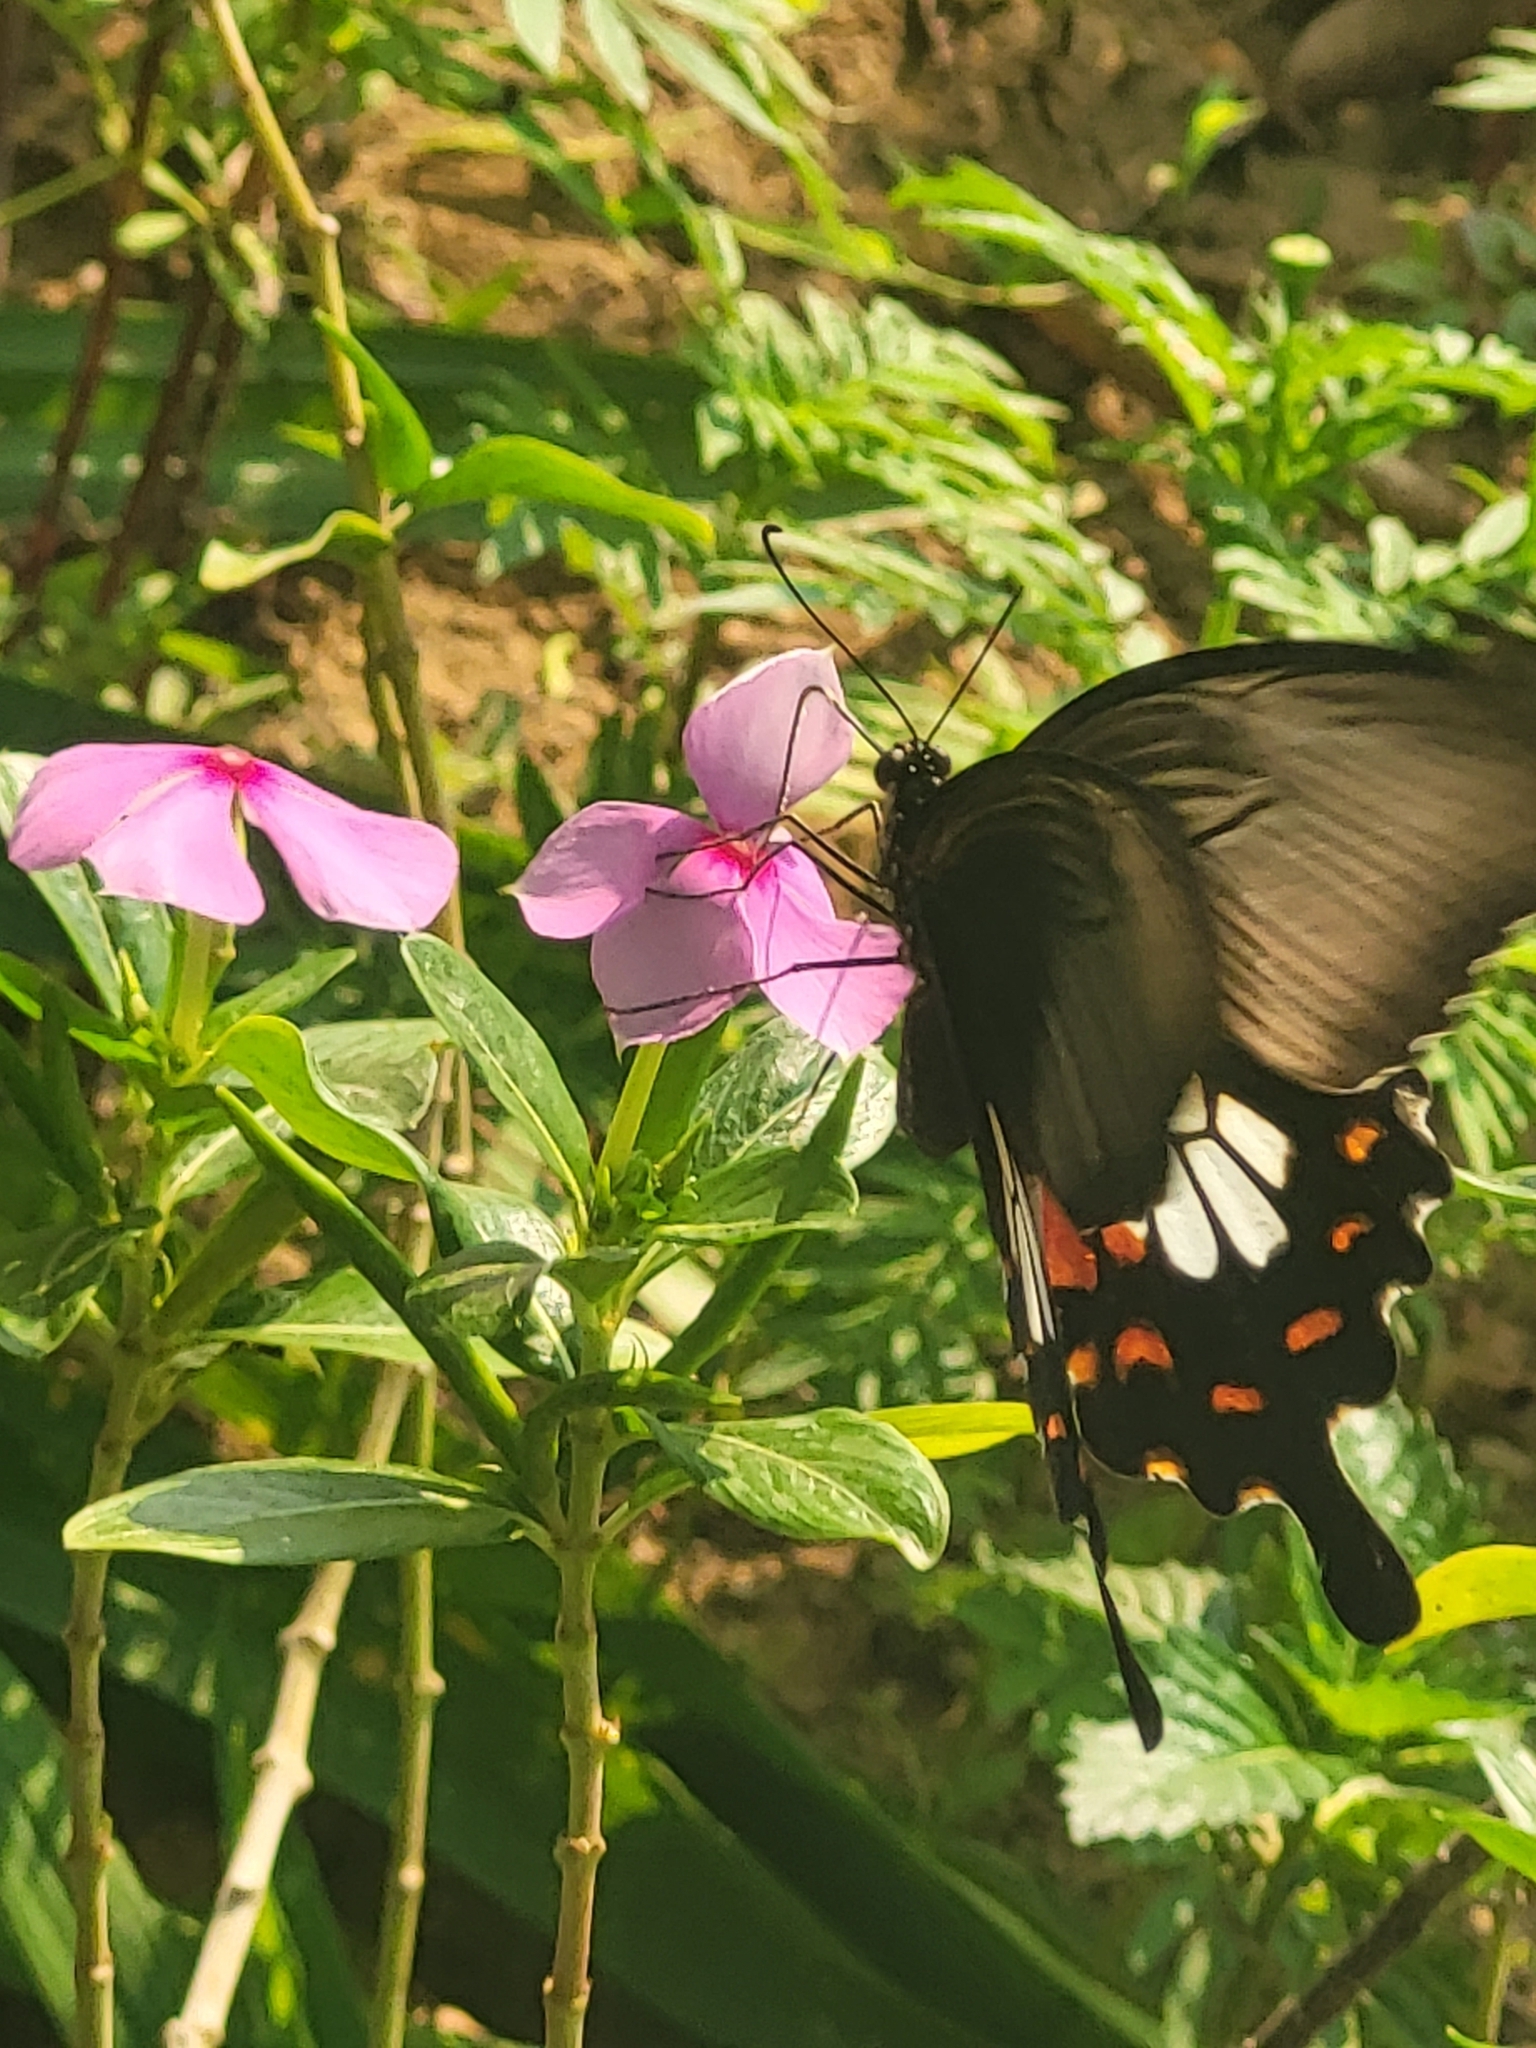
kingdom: Animalia
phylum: Arthropoda
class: Insecta
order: Lepidoptera
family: Papilionidae
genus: Papilio
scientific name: Papilio polytes
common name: Common mormon
